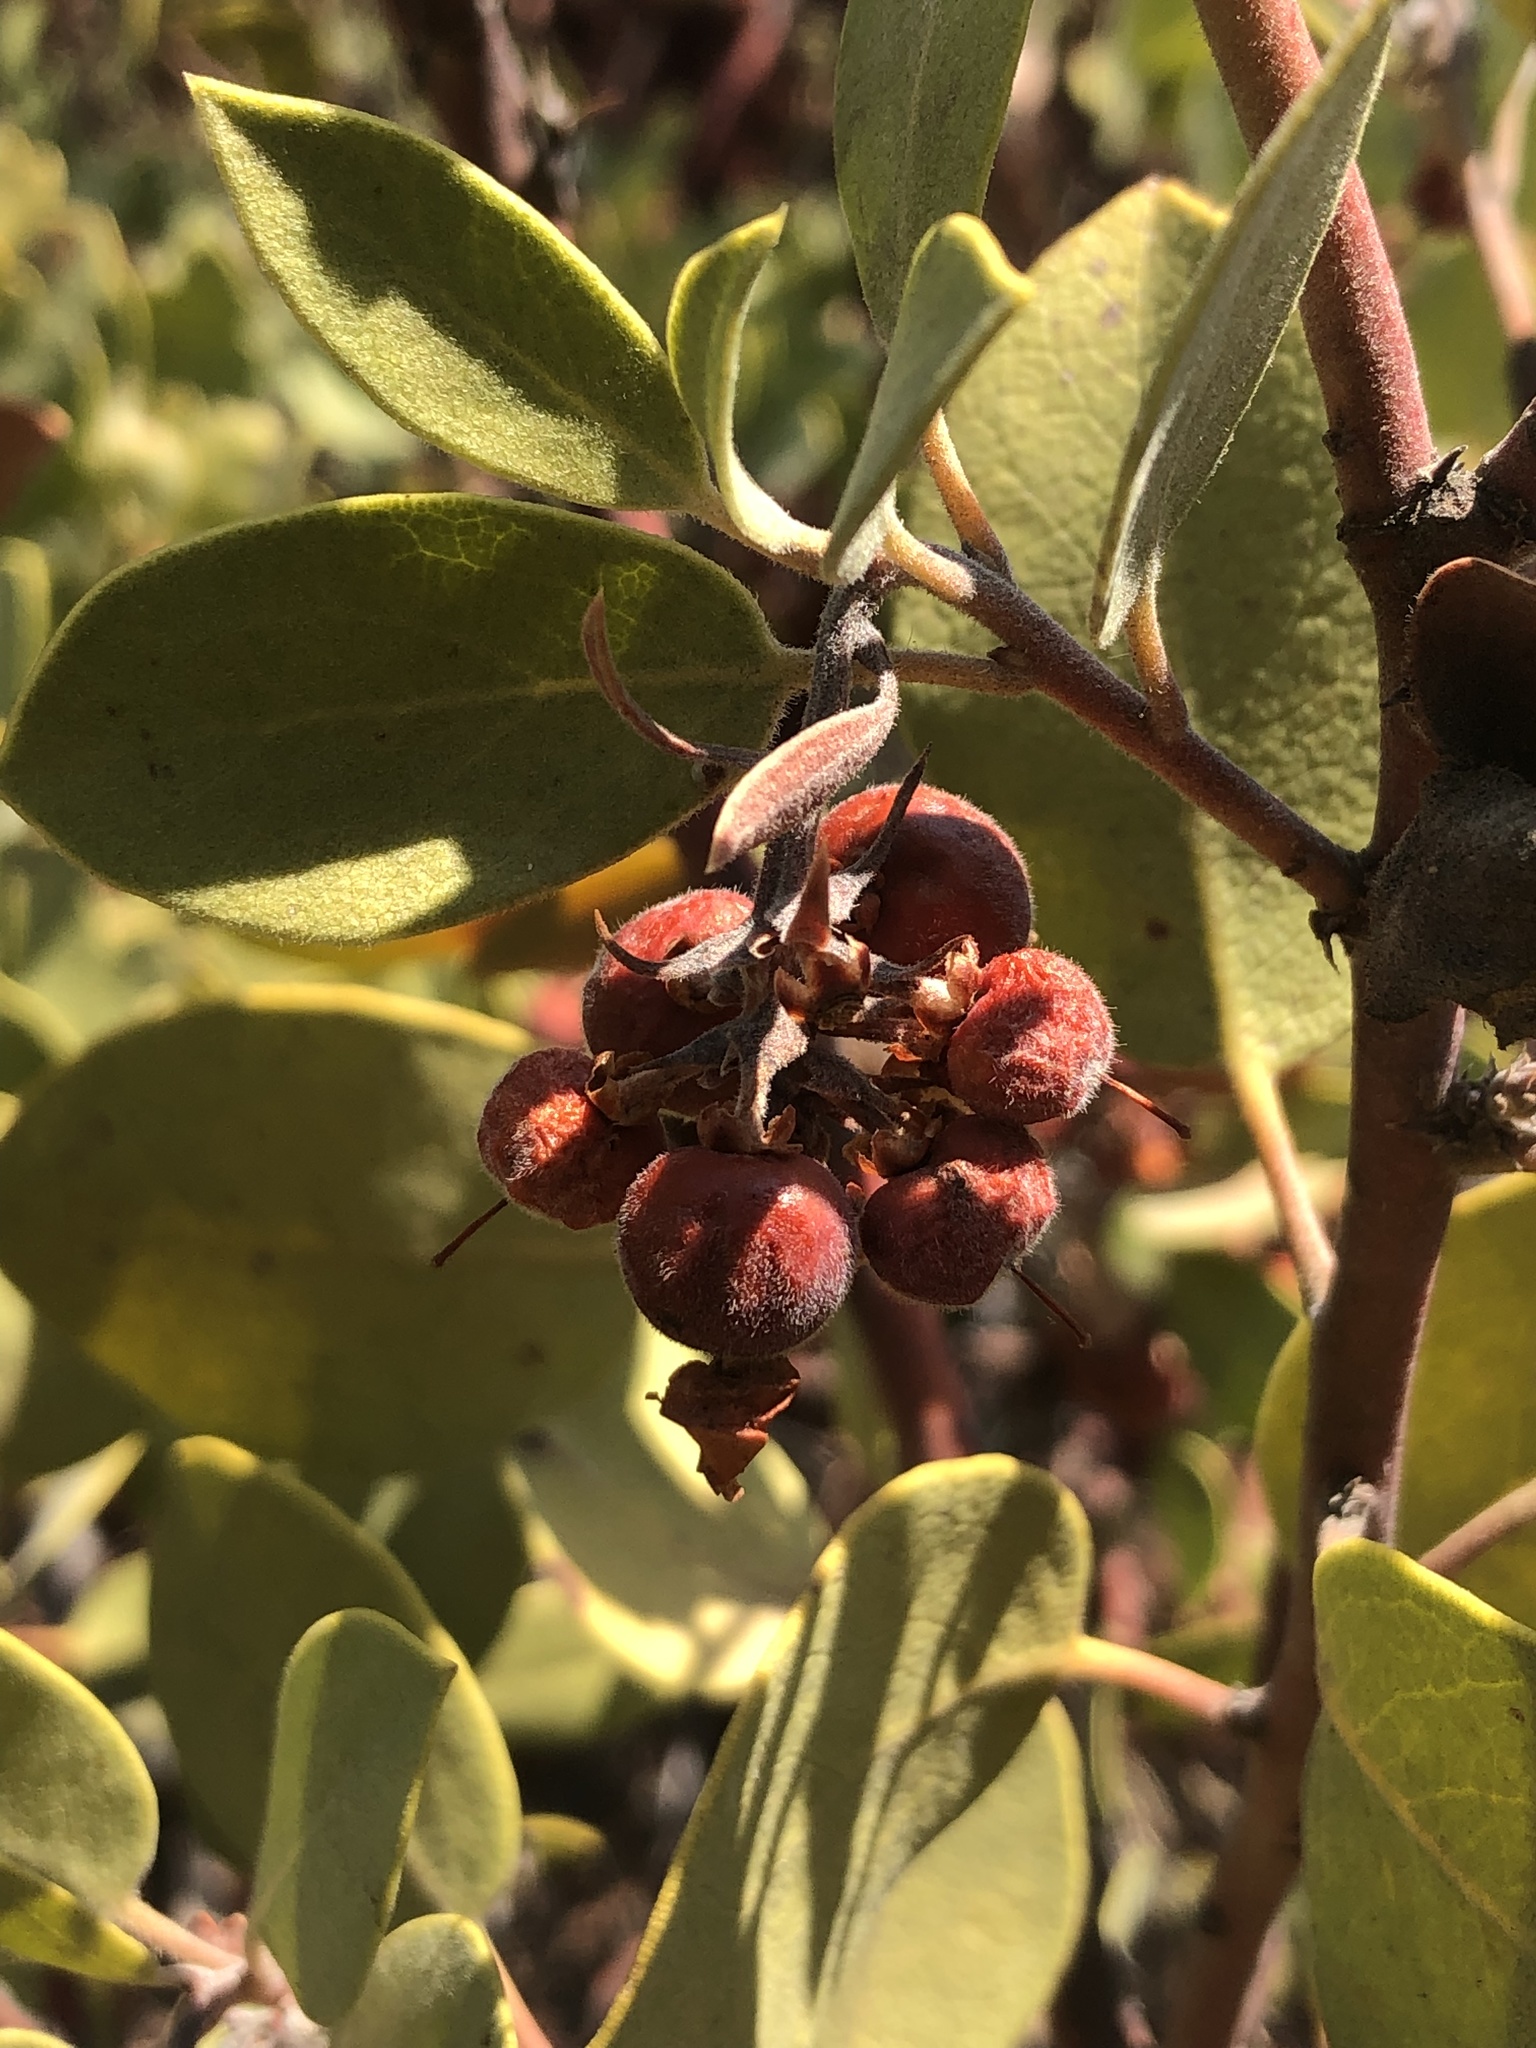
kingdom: Plantae
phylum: Tracheophyta
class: Magnoliopsida
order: Ericales
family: Ericaceae
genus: Arctostaphylos
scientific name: Arctostaphylos glandulosa
